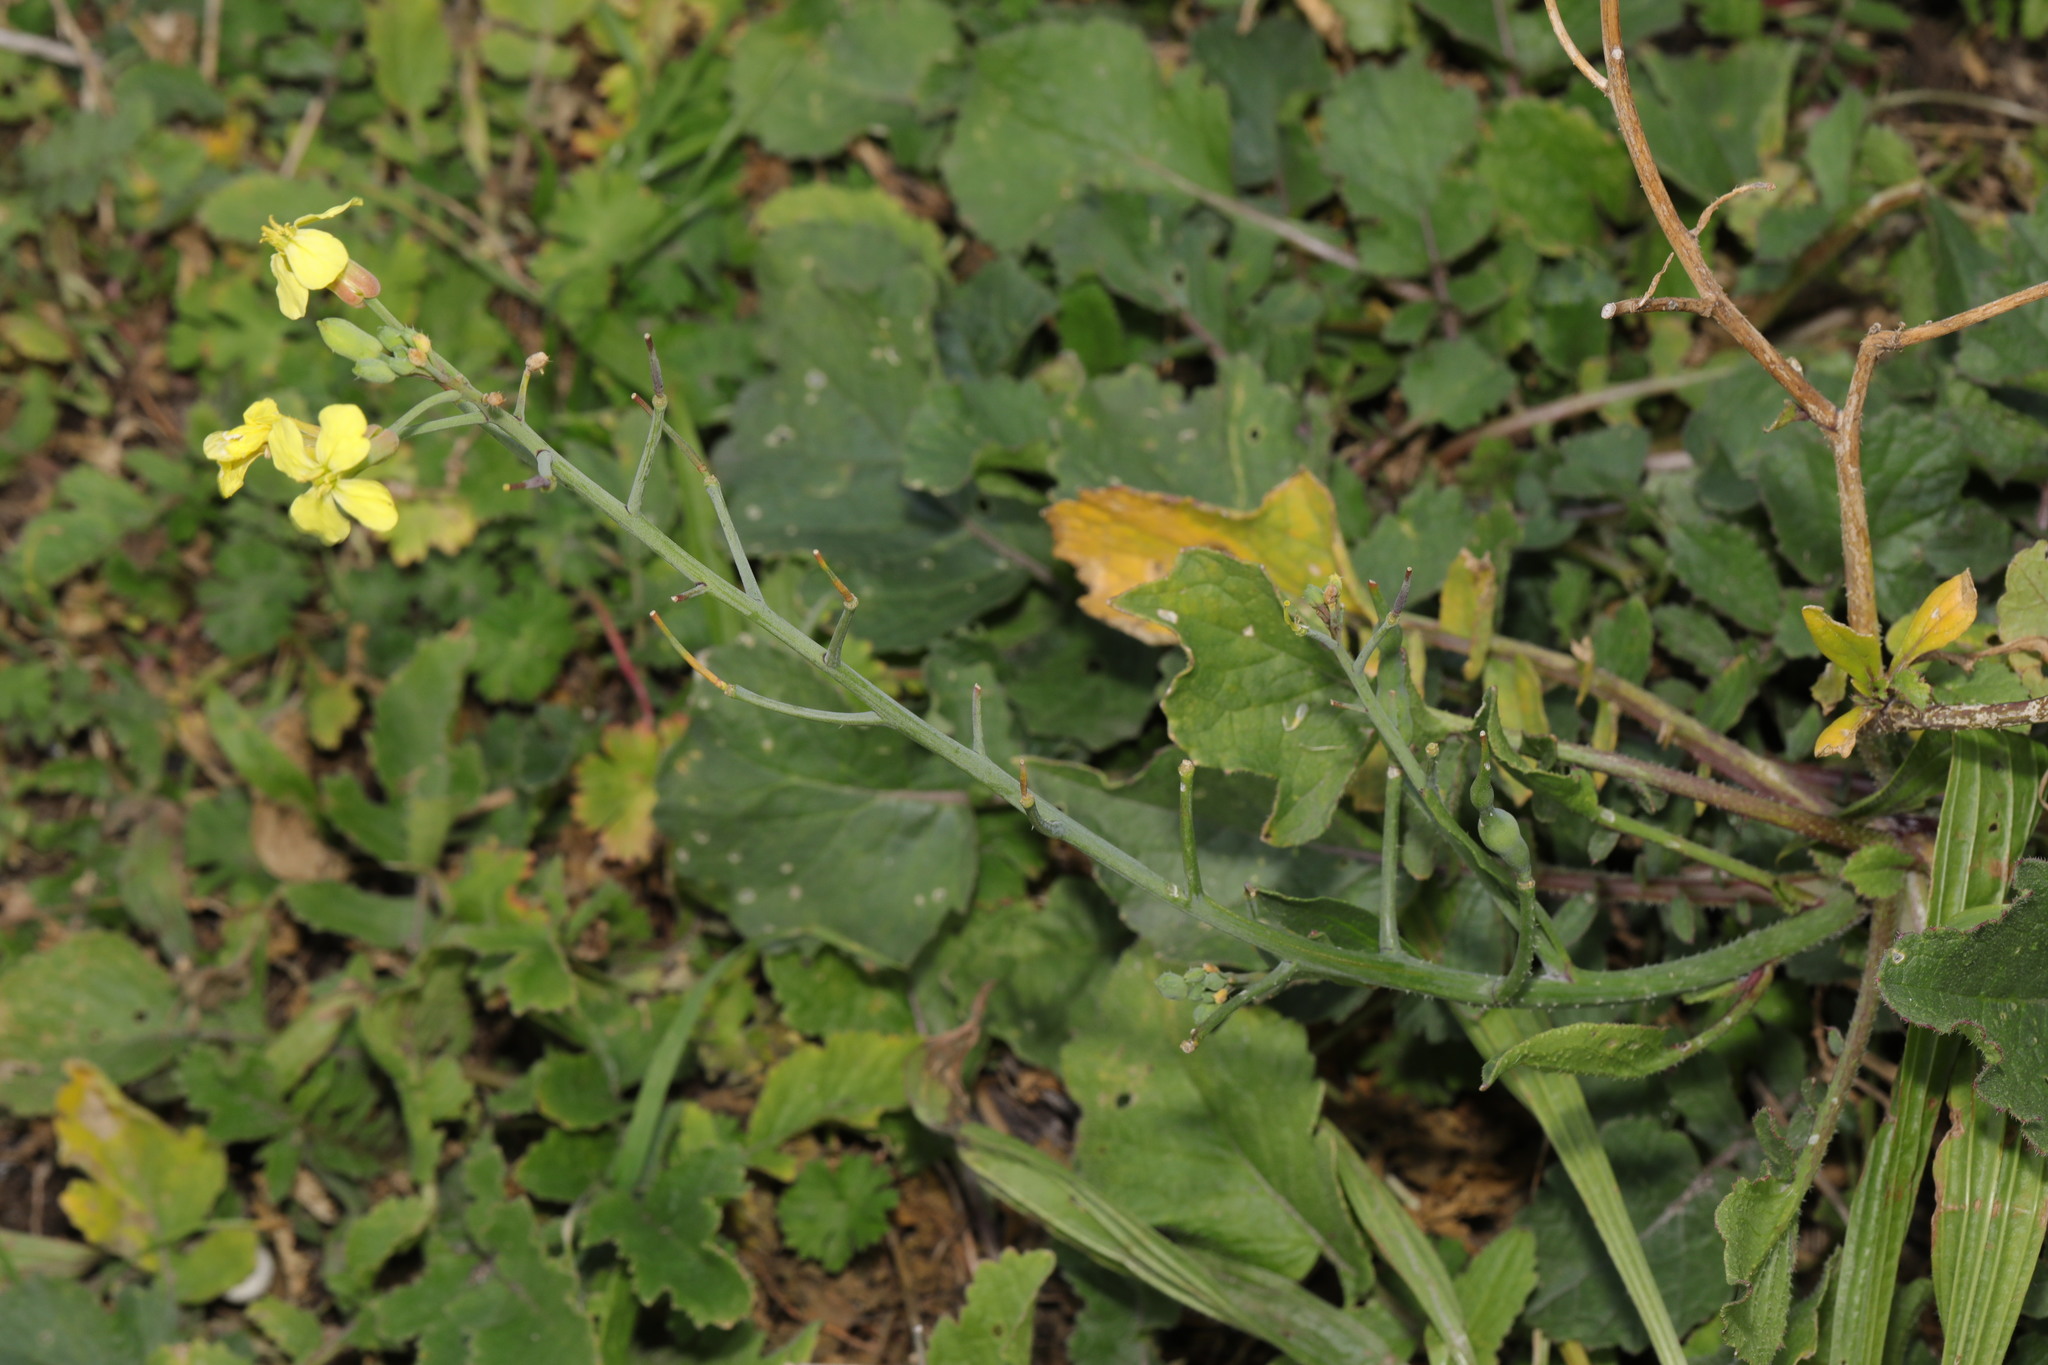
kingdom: Plantae
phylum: Tracheophyta
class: Magnoliopsida
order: Brassicales
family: Brassicaceae
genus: Raphanus
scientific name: Raphanus raphanistrum
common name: Wild radish
